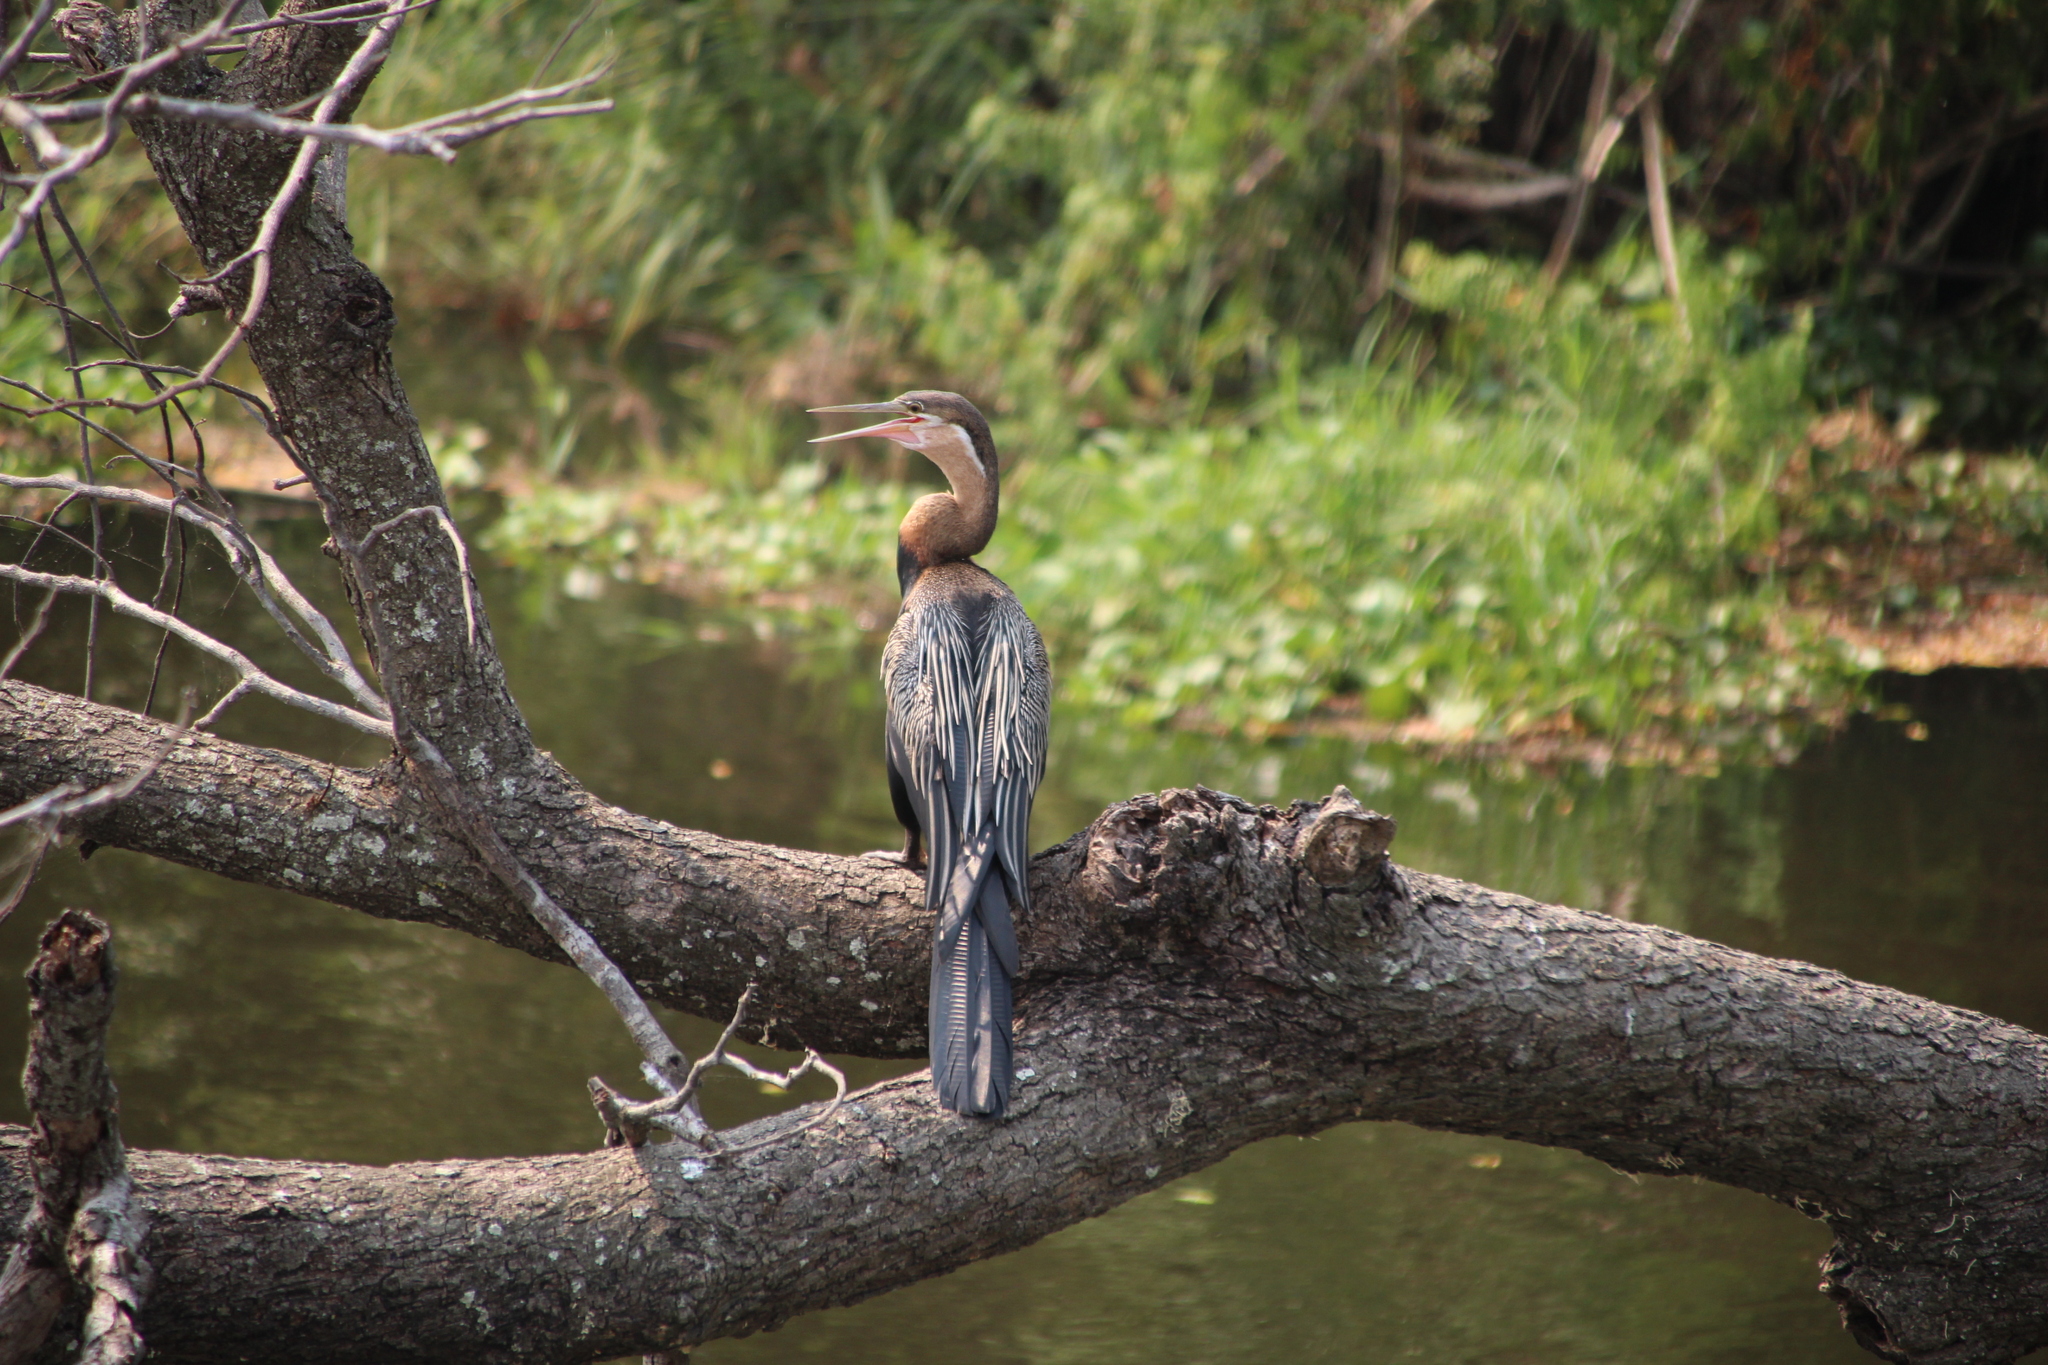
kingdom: Animalia
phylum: Chordata
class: Aves
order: Suliformes
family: Anhingidae
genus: Anhinga
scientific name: Anhinga rufa
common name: African darter
